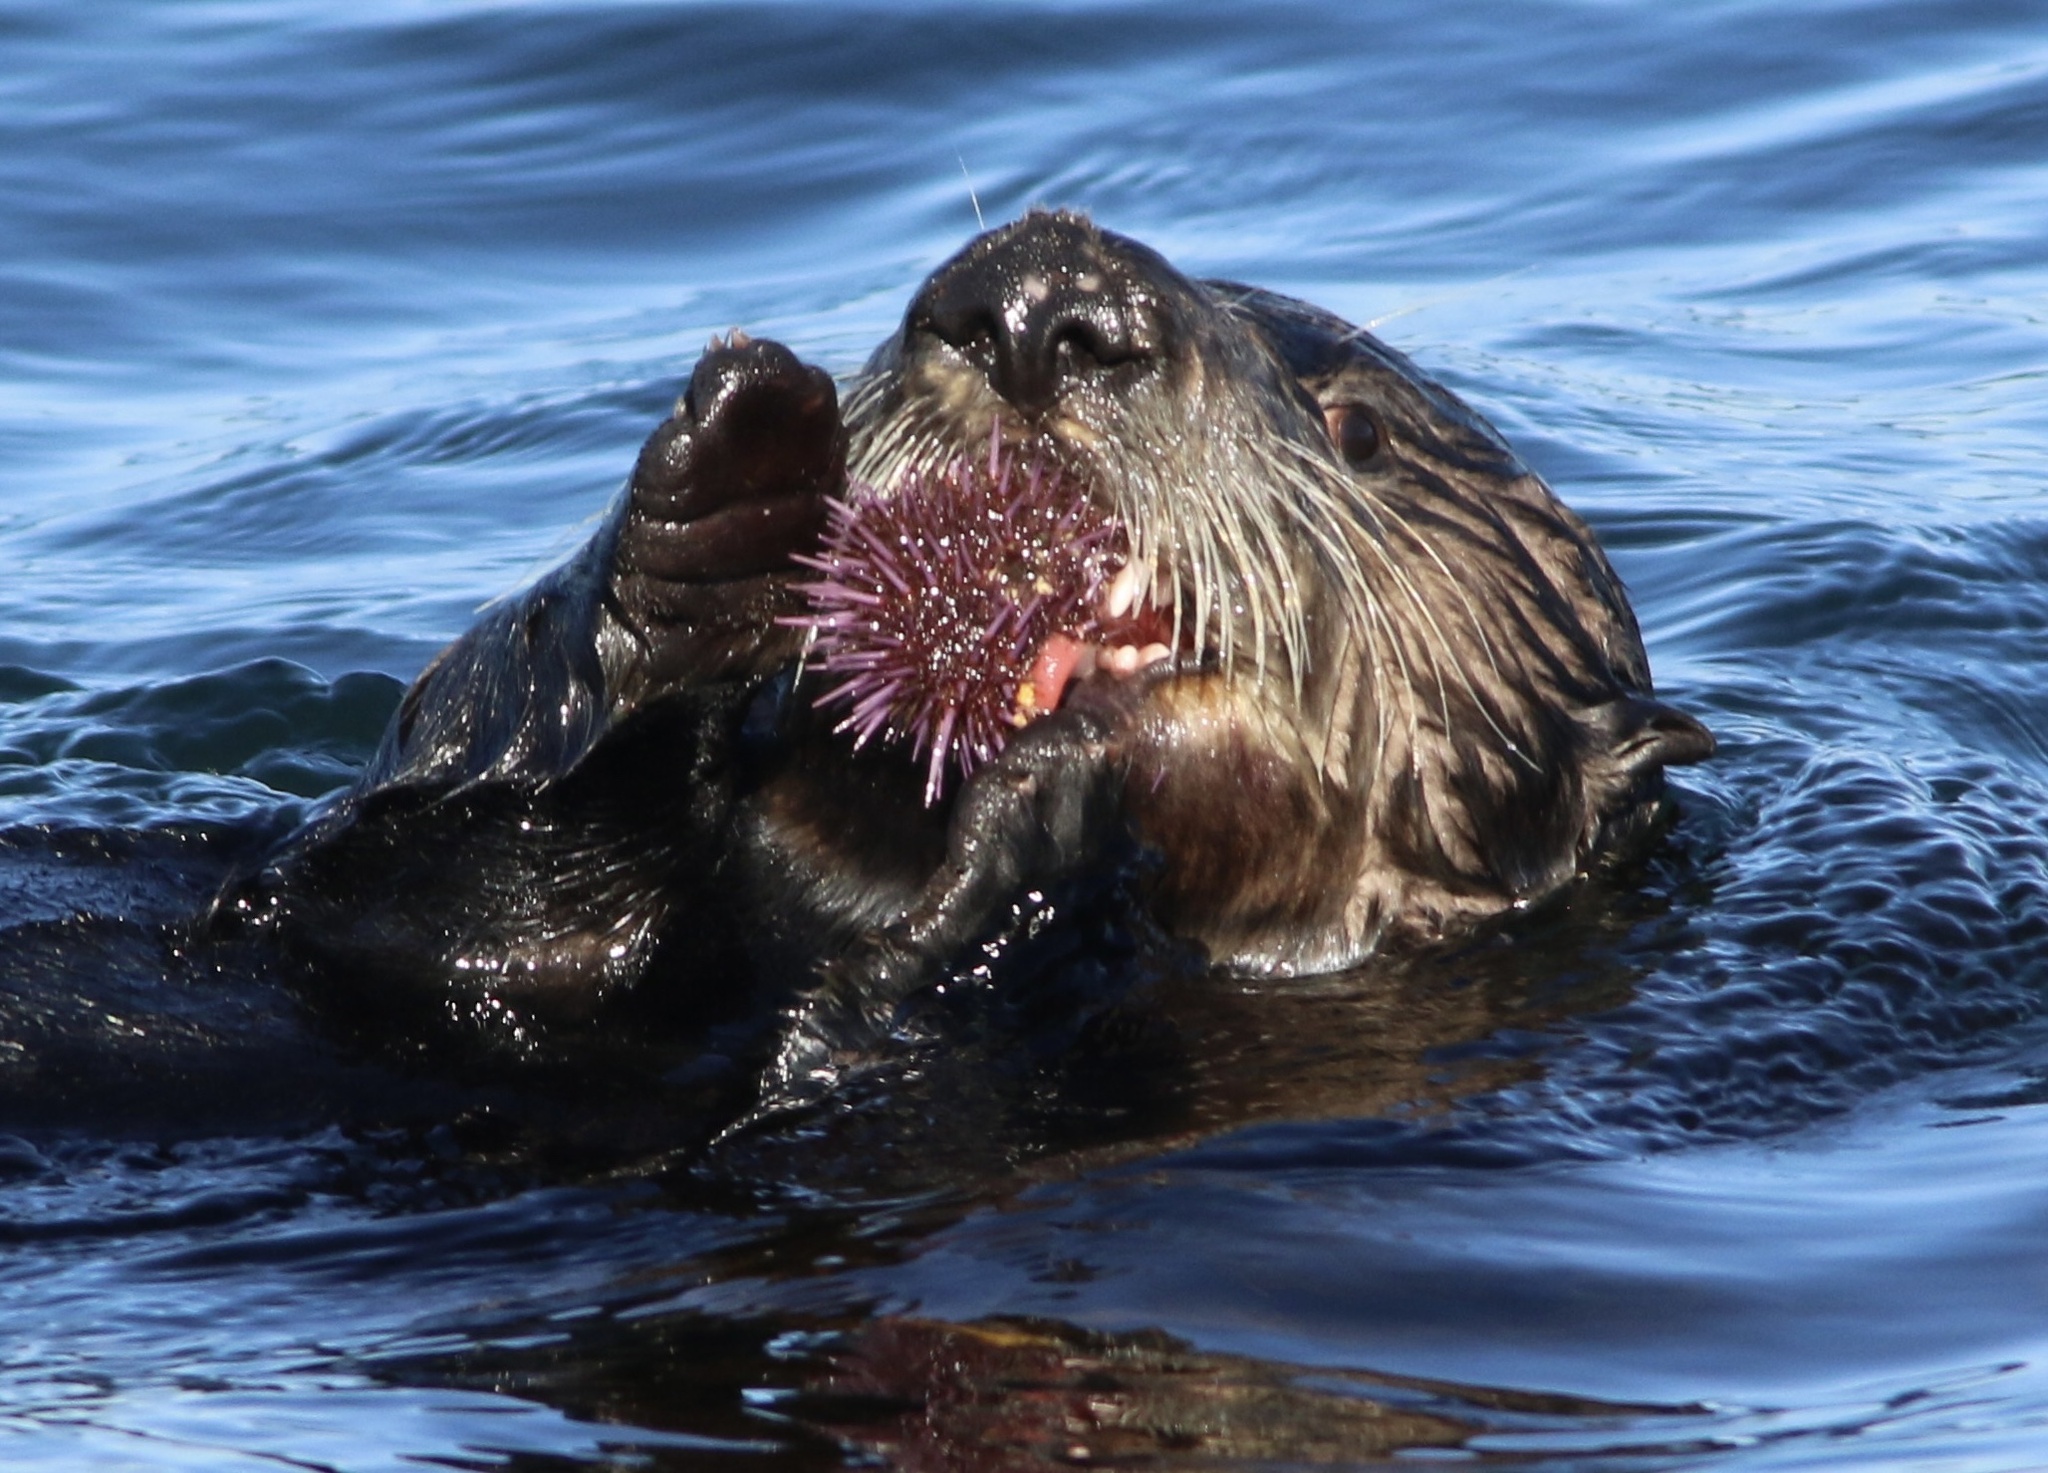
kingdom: Animalia
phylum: Echinodermata
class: Echinoidea
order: Camarodonta
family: Strongylocentrotidae
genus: Strongylocentrotus
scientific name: Strongylocentrotus purpuratus
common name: Purple sea urchin
